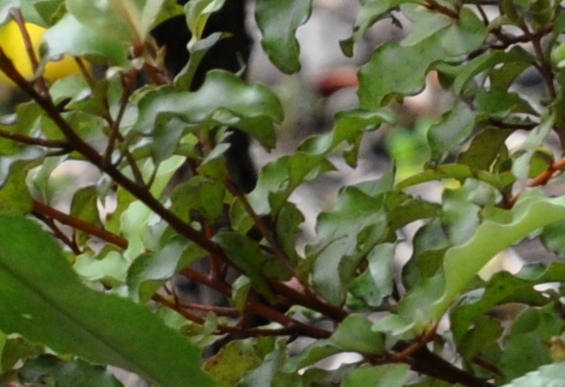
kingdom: Plantae
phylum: Tracheophyta
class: Magnoliopsida
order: Ericales
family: Primulaceae
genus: Myrsine
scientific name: Myrsine australis
